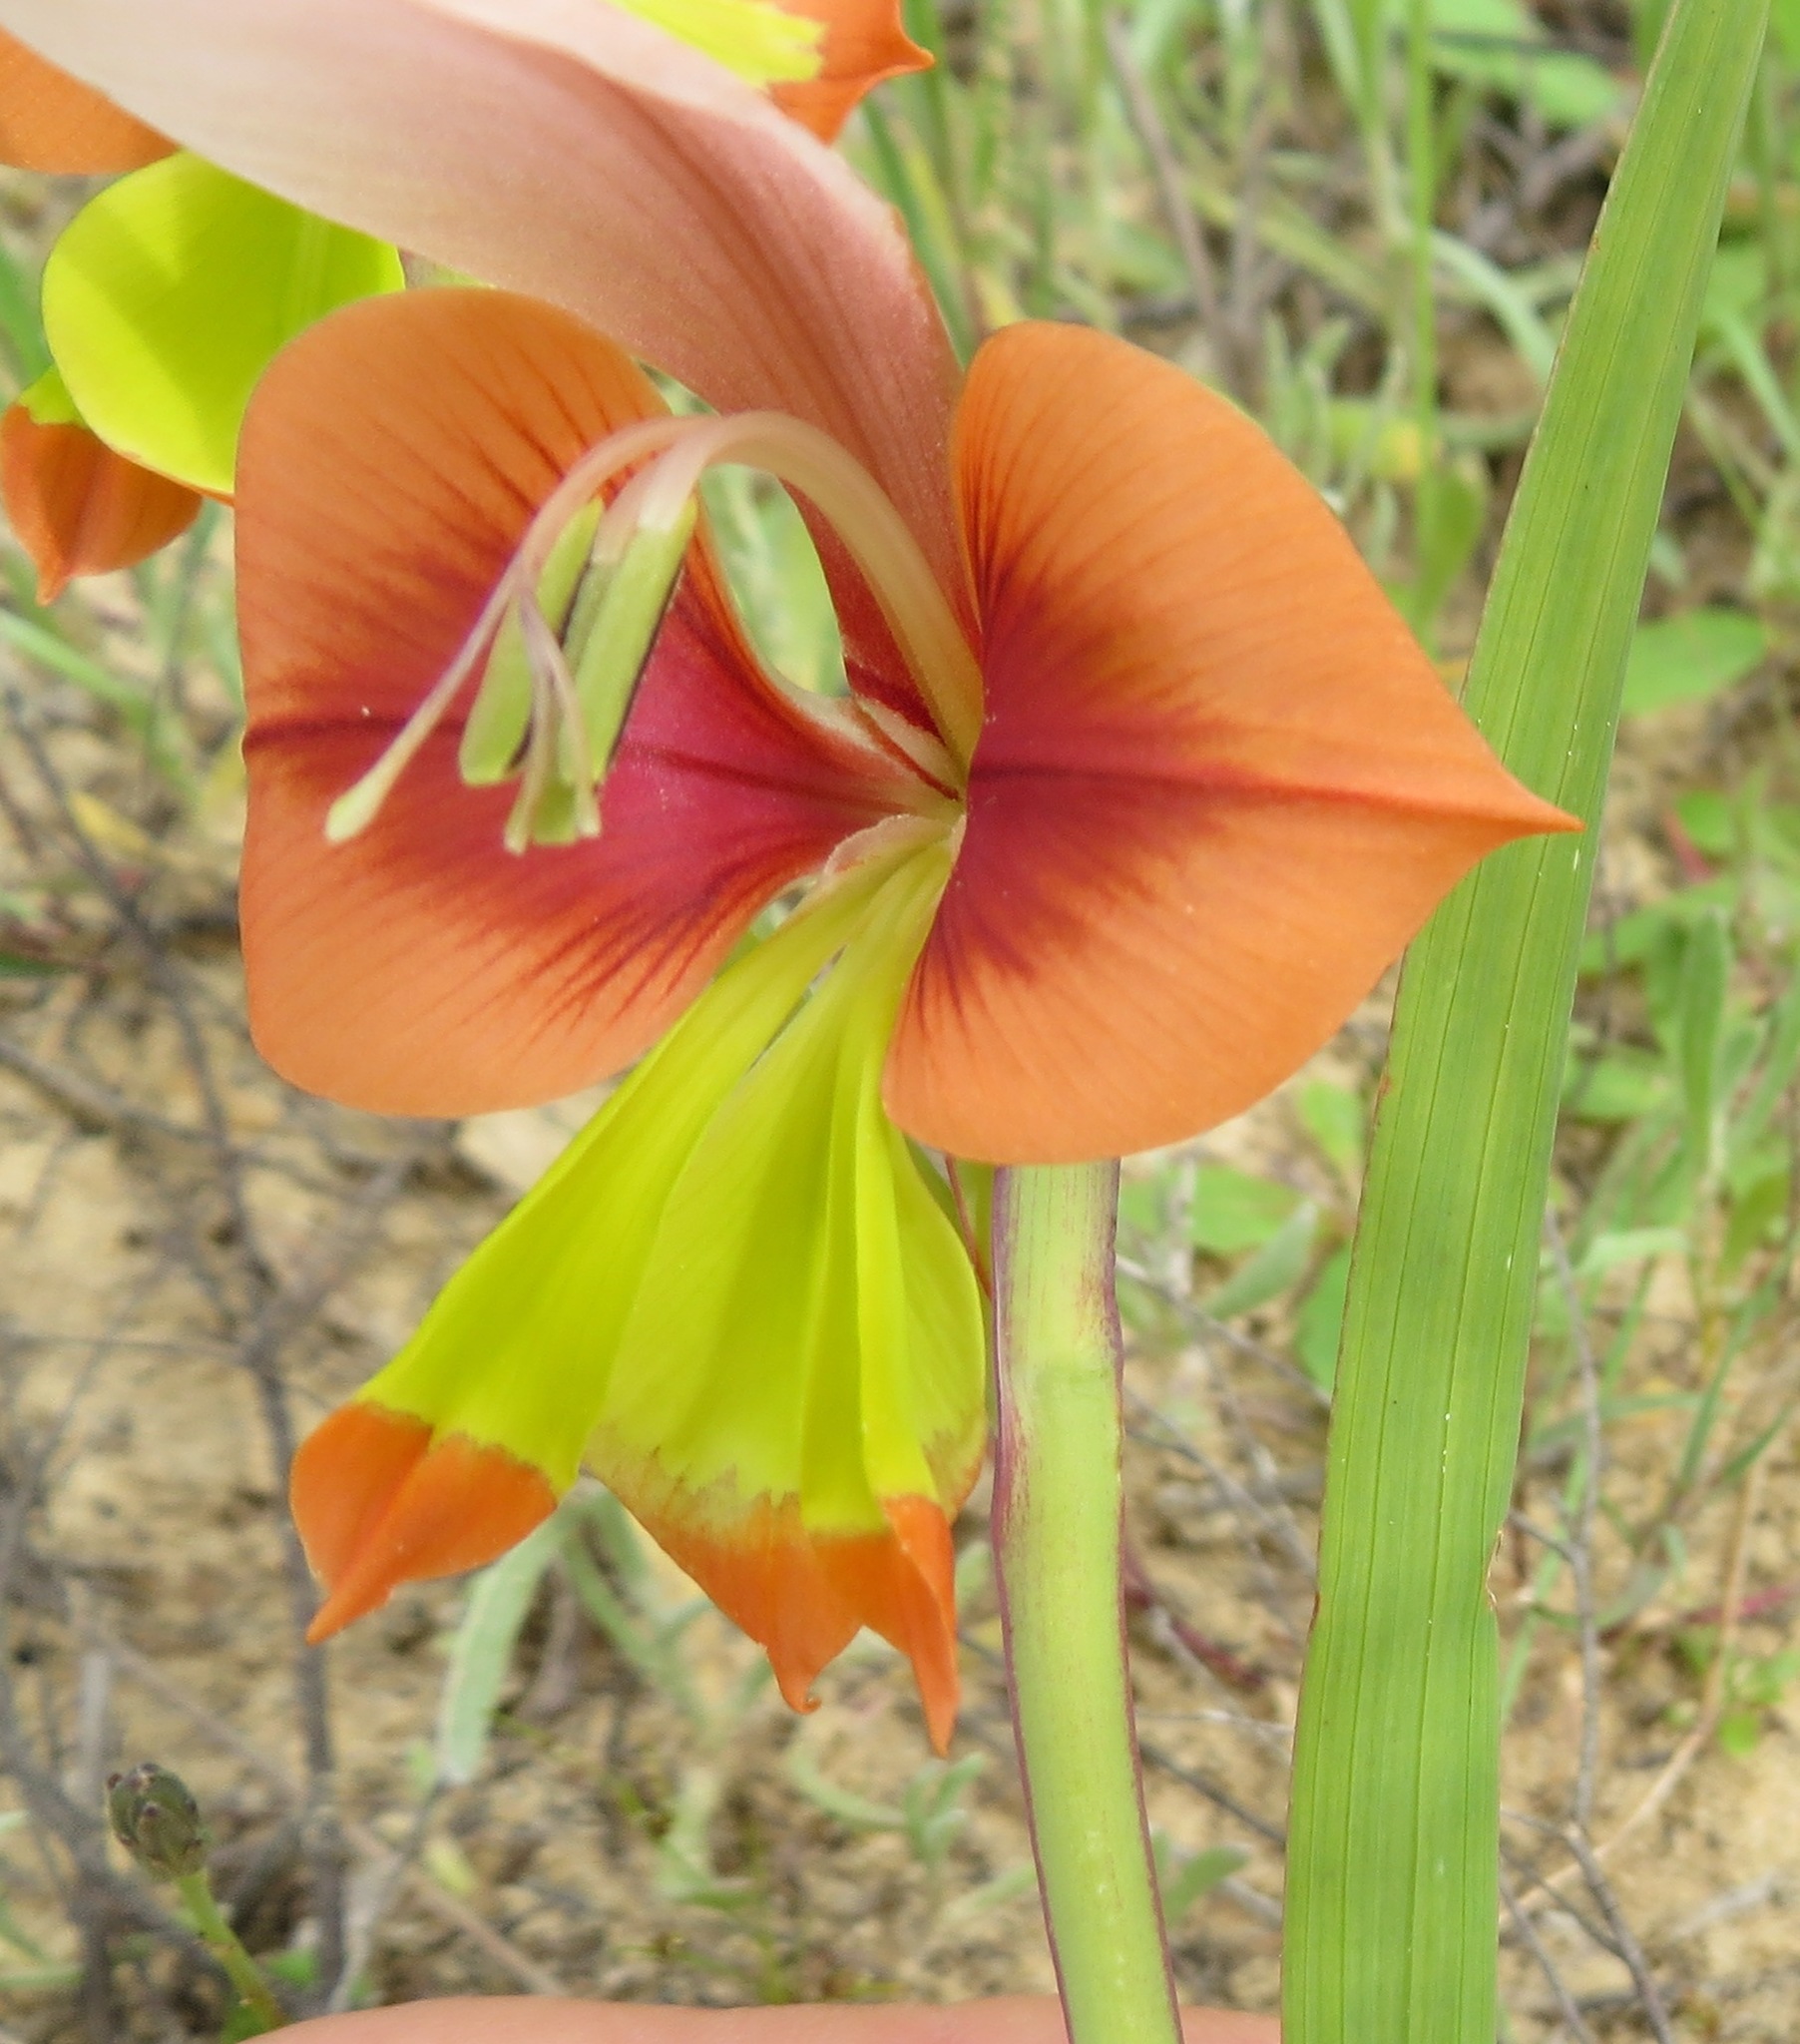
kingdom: Plantae
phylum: Tracheophyta
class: Liliopsida
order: Asparagales
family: Iridaceae
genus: Gladiolus
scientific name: Gladiolus alatus
